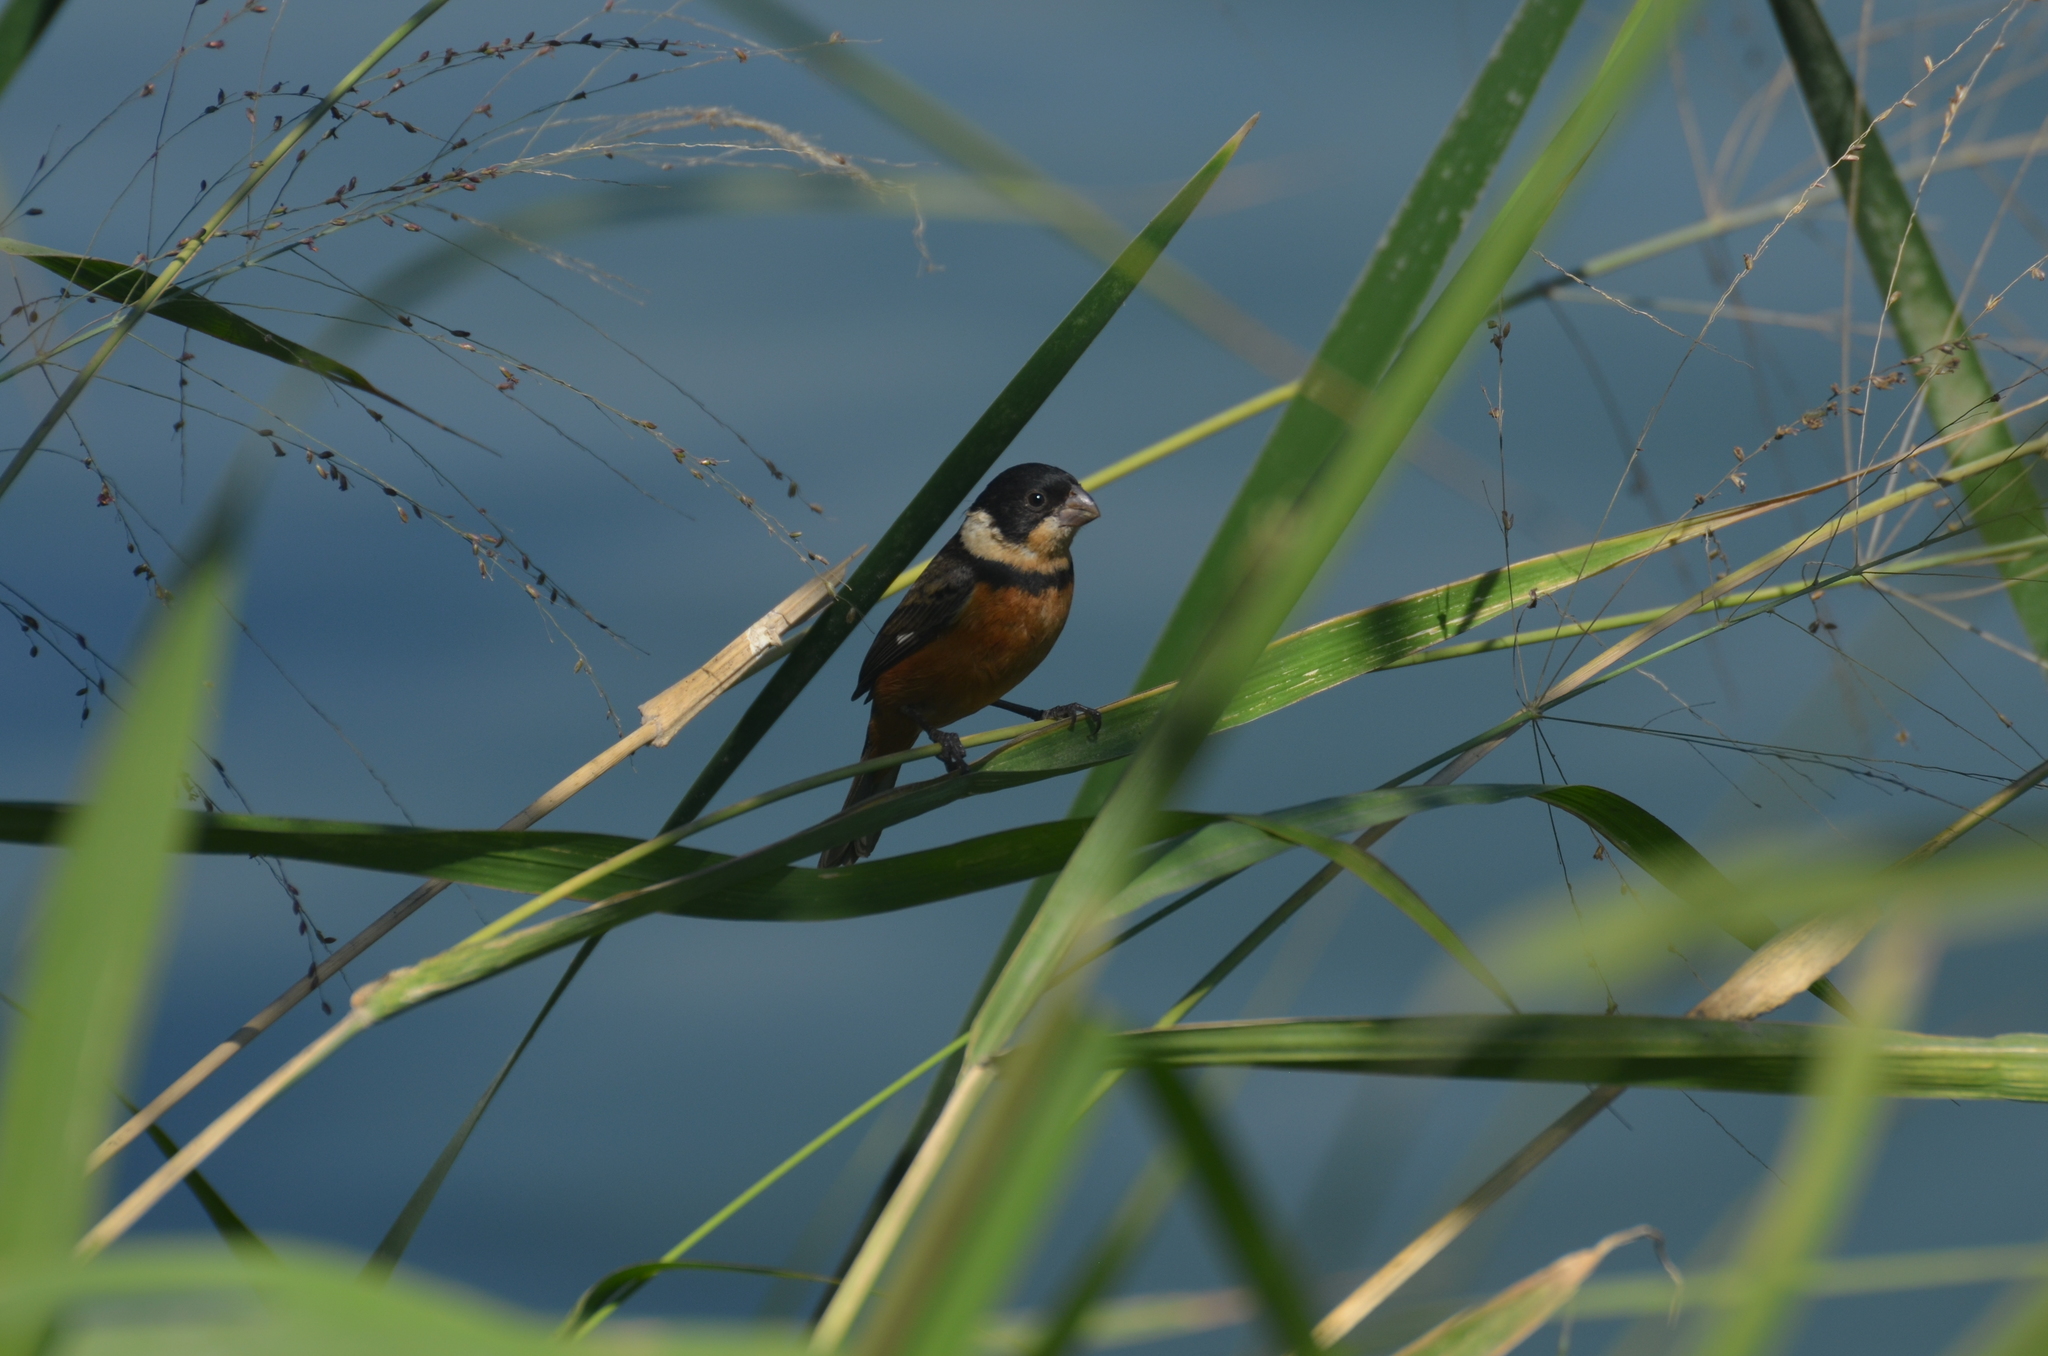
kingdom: Animalia
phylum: Chordata
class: Aves
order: Passeriformes
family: Thraupidae
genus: Sporophila
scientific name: Sporophila torqueola
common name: White-collared seedeater
